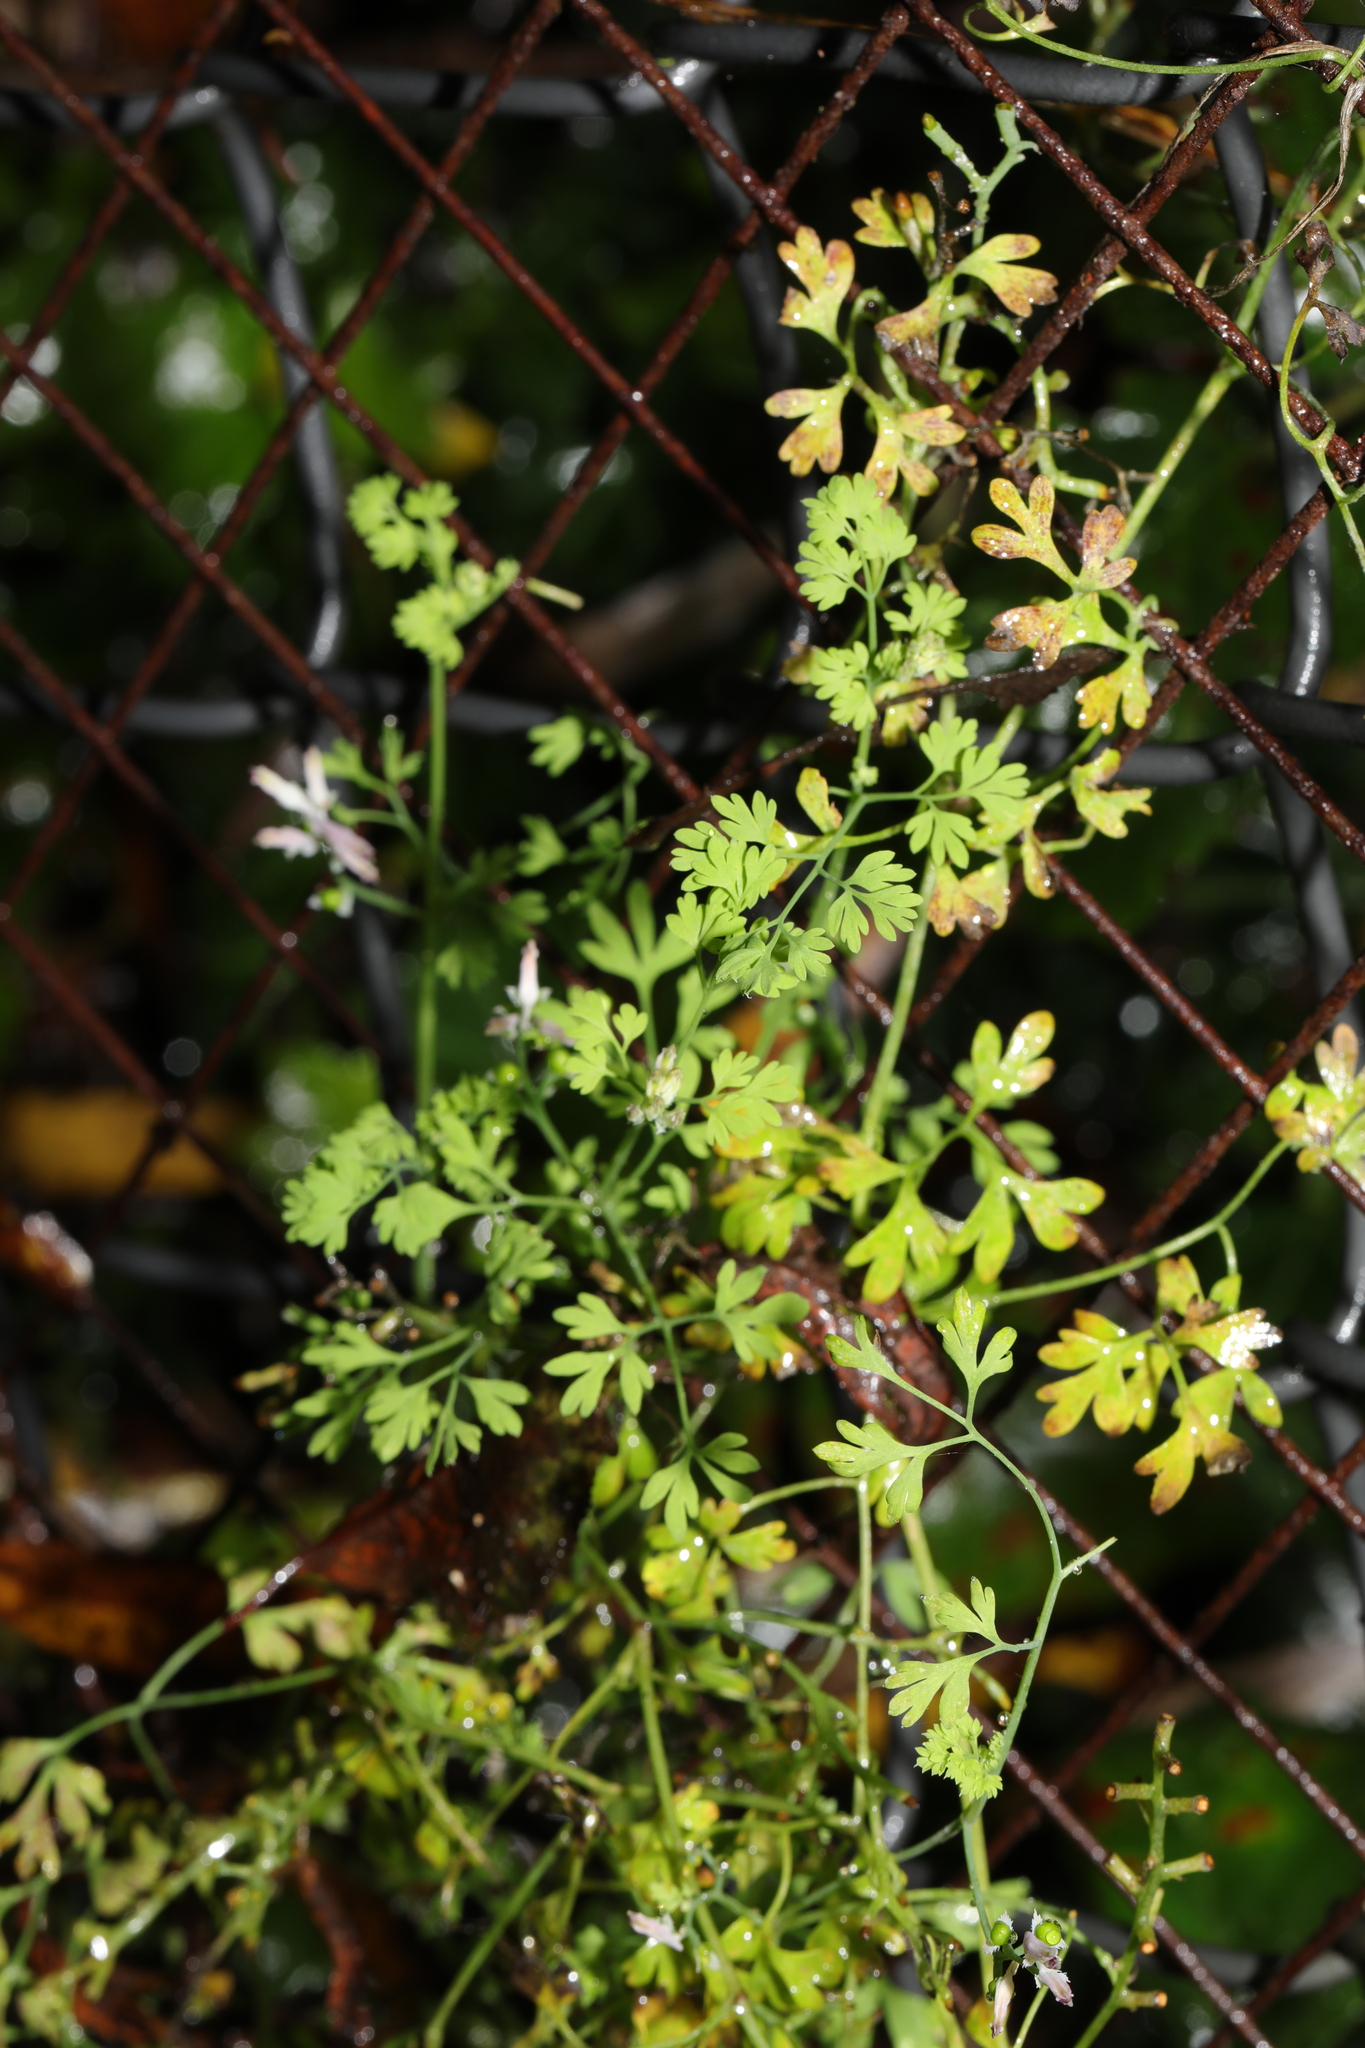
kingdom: Plantae
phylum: Tracheophyta
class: Magnoliopsida
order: Ranunculales
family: Papaveraceae
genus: Fumaria
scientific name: Fumaria muralis
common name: Common ramping-fumitory
